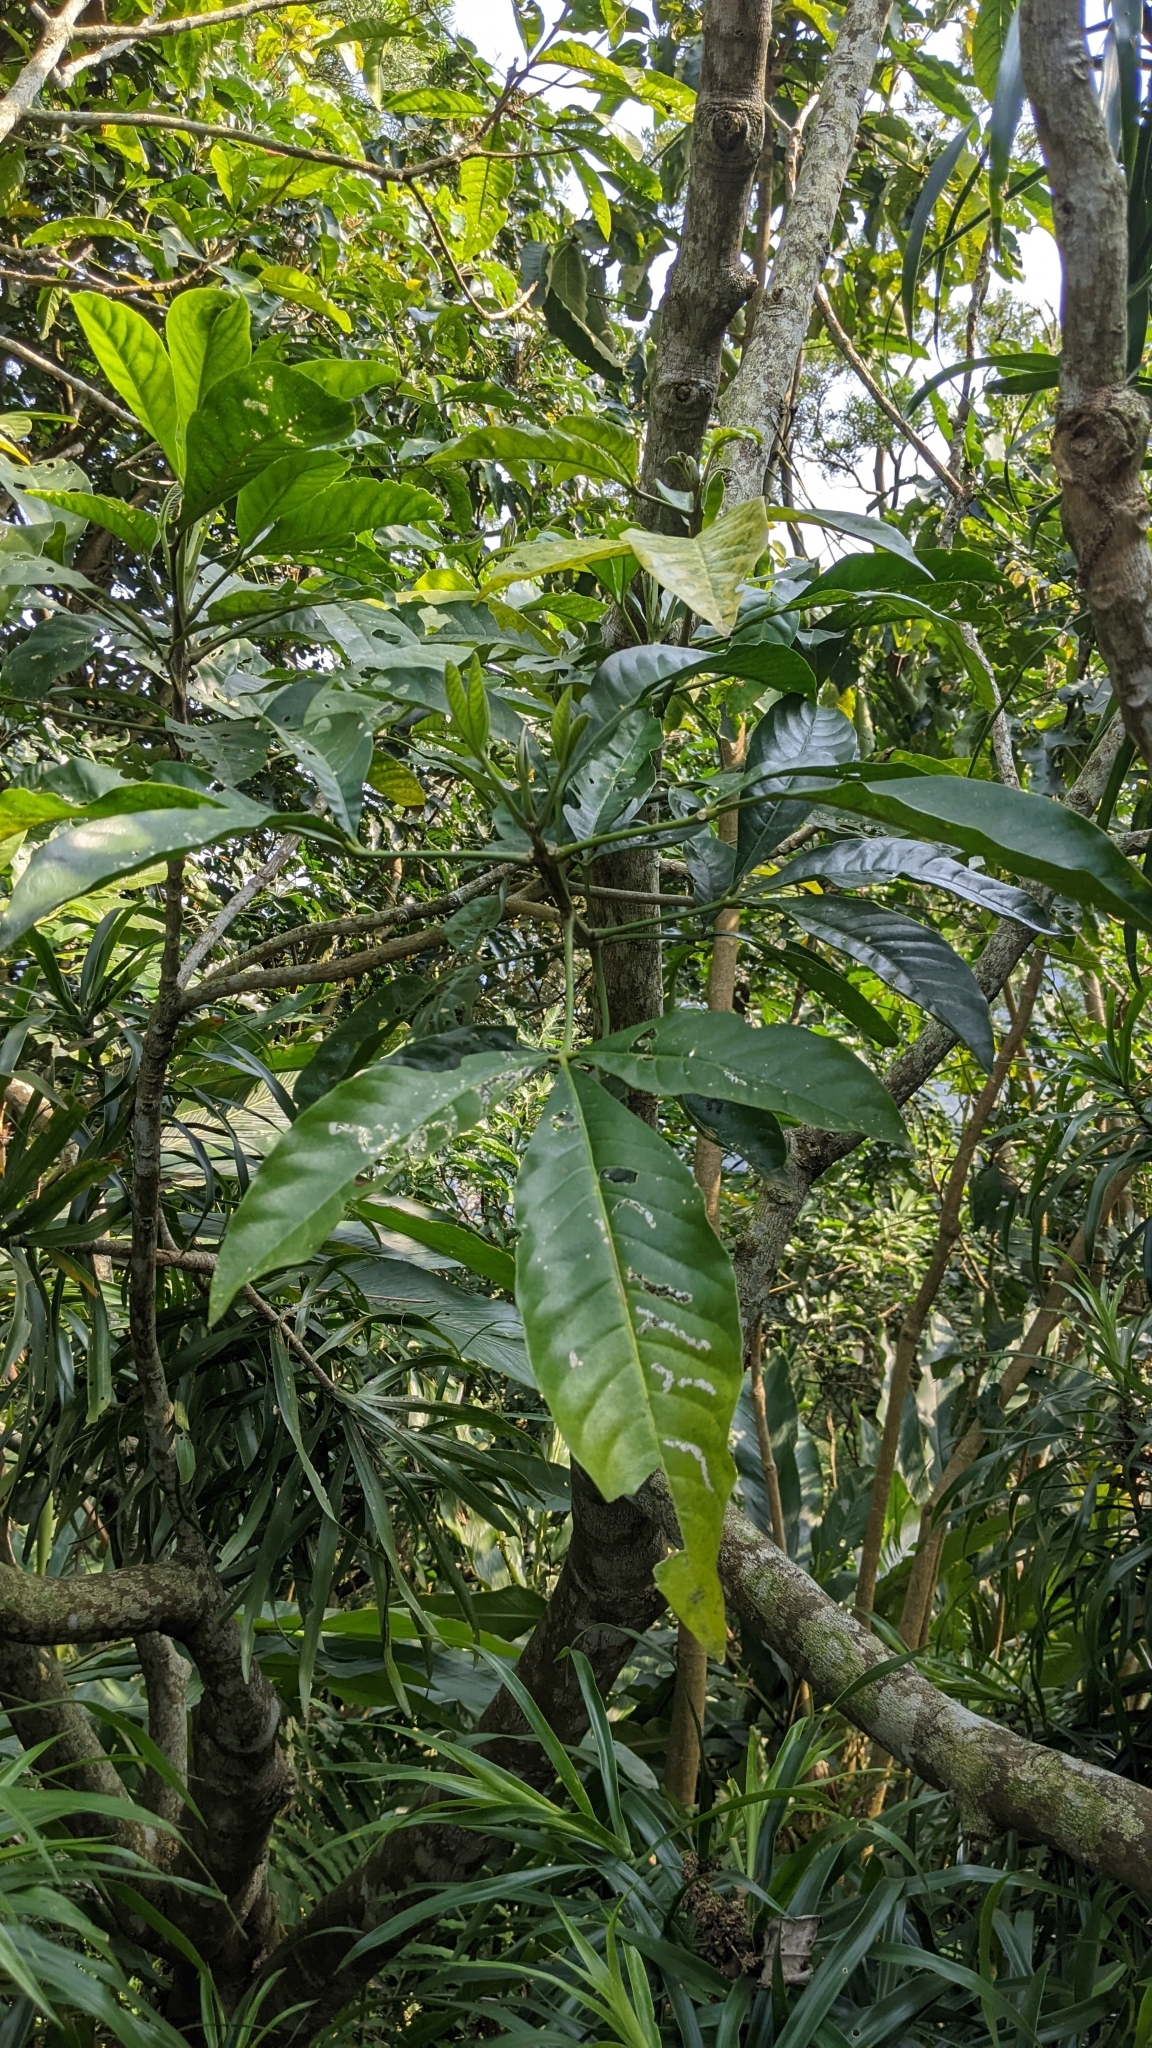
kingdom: Plantae
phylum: Tracheophyta
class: Magnoliopsida
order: Sapindales
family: Rutaceae
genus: Melicope
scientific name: Melicope semecarpifolia
